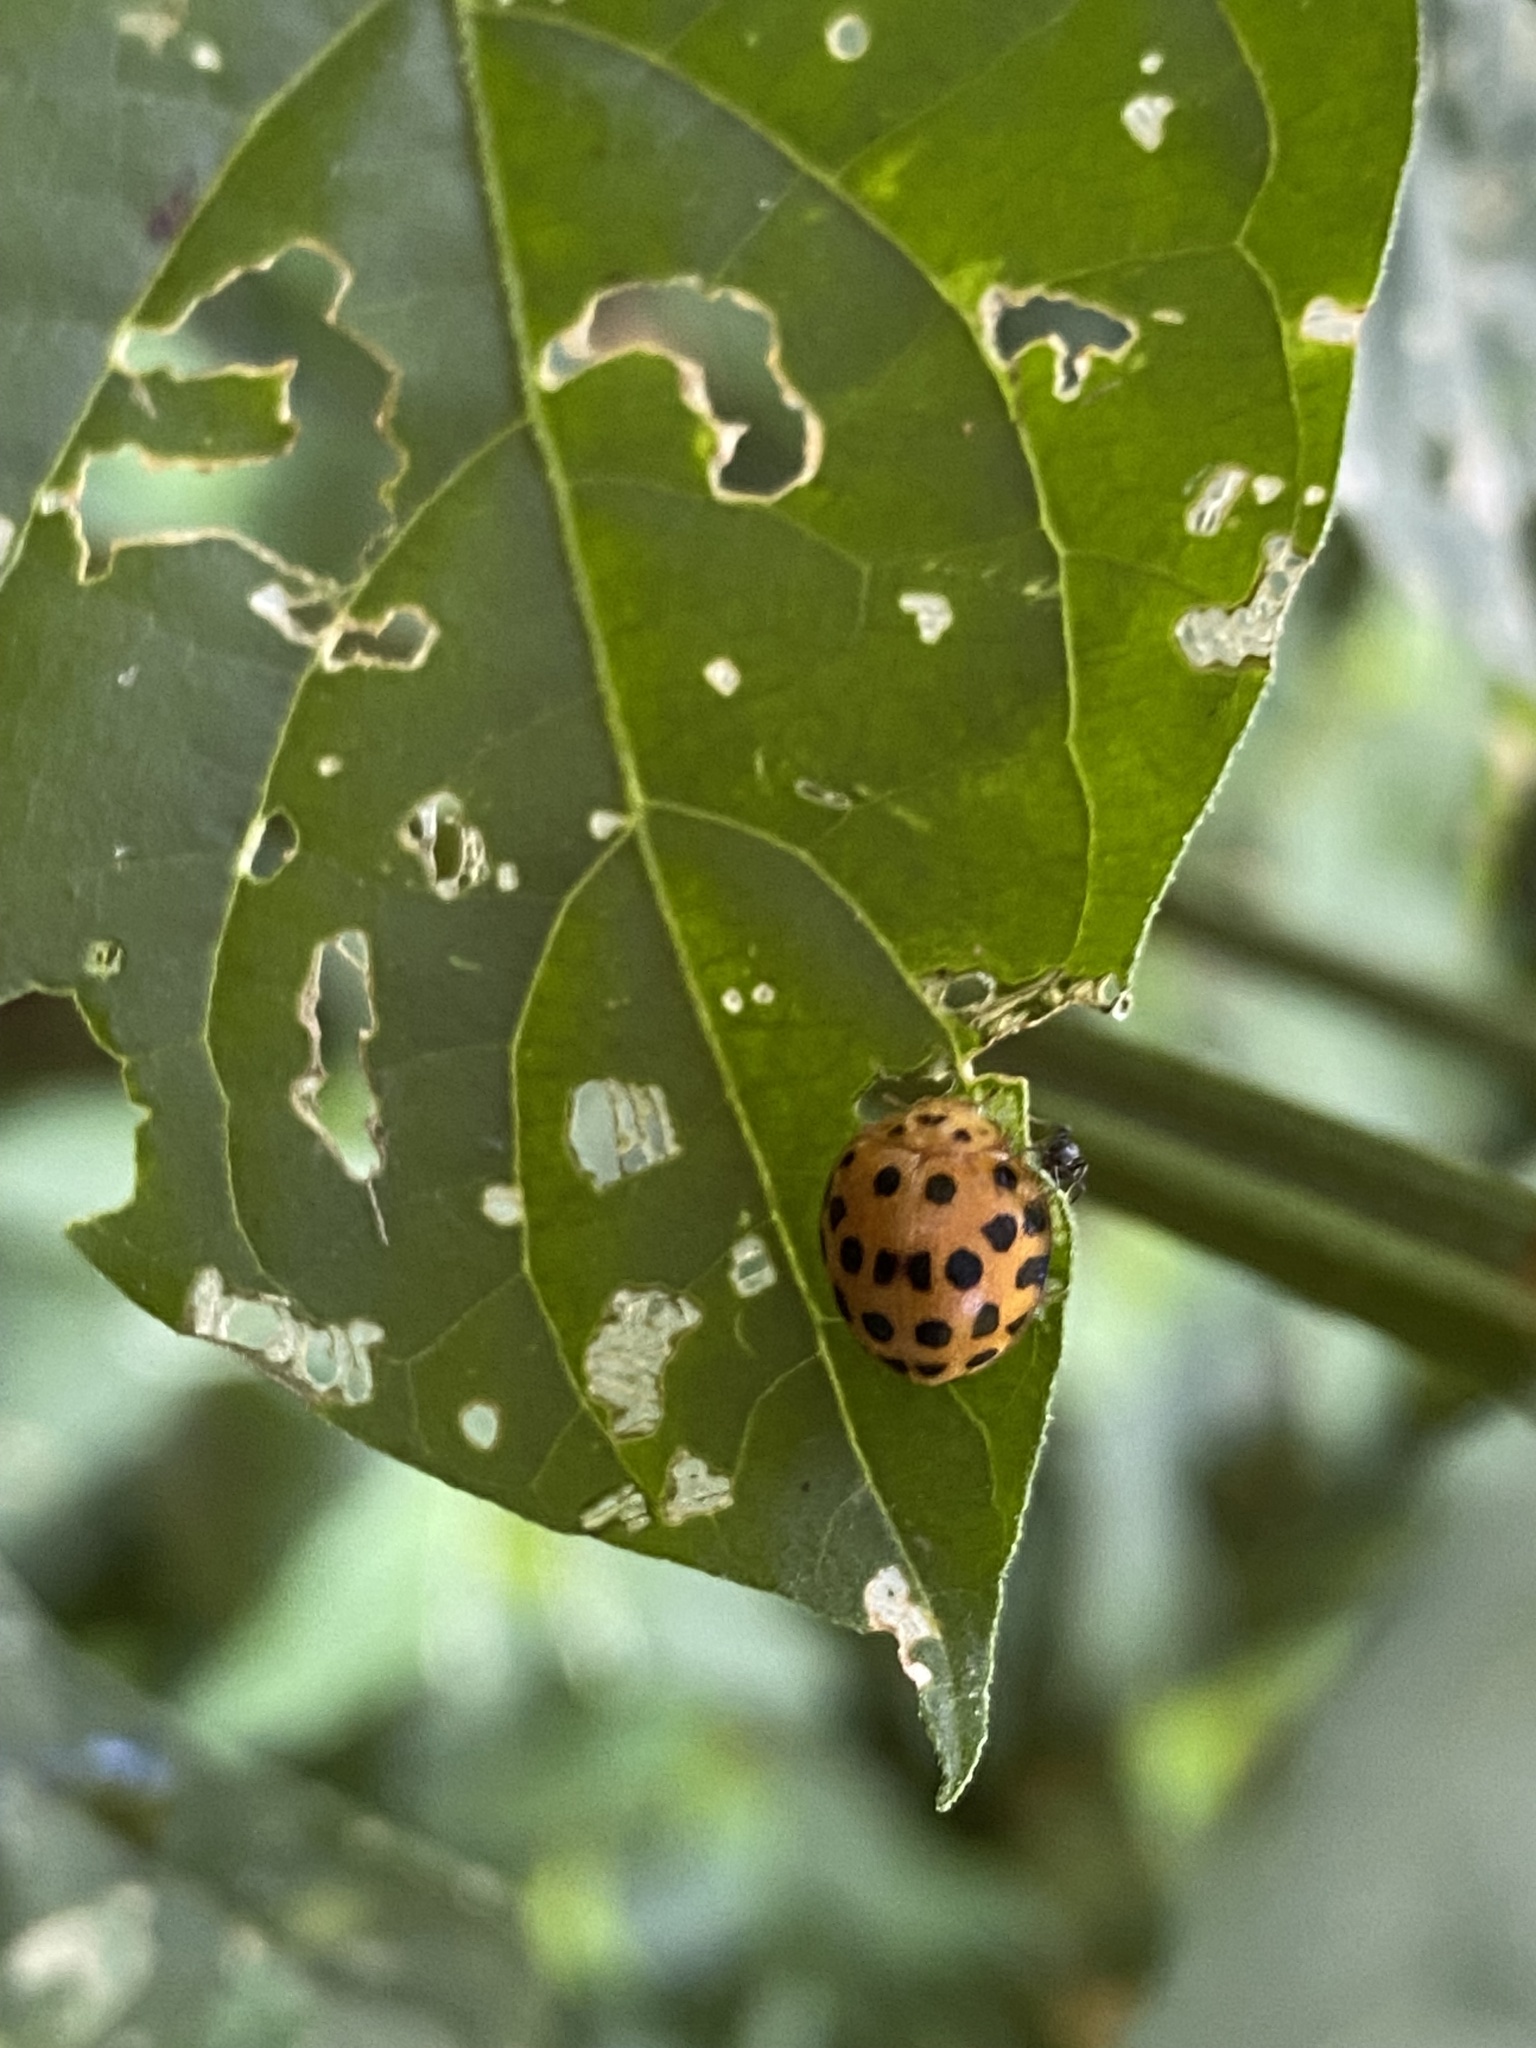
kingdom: Animalia
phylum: Arthropoda
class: Insecta
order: Coleoptera
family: Coccinellidae
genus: Henosepilachna
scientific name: Henosepilachna vigintioctopunctata
